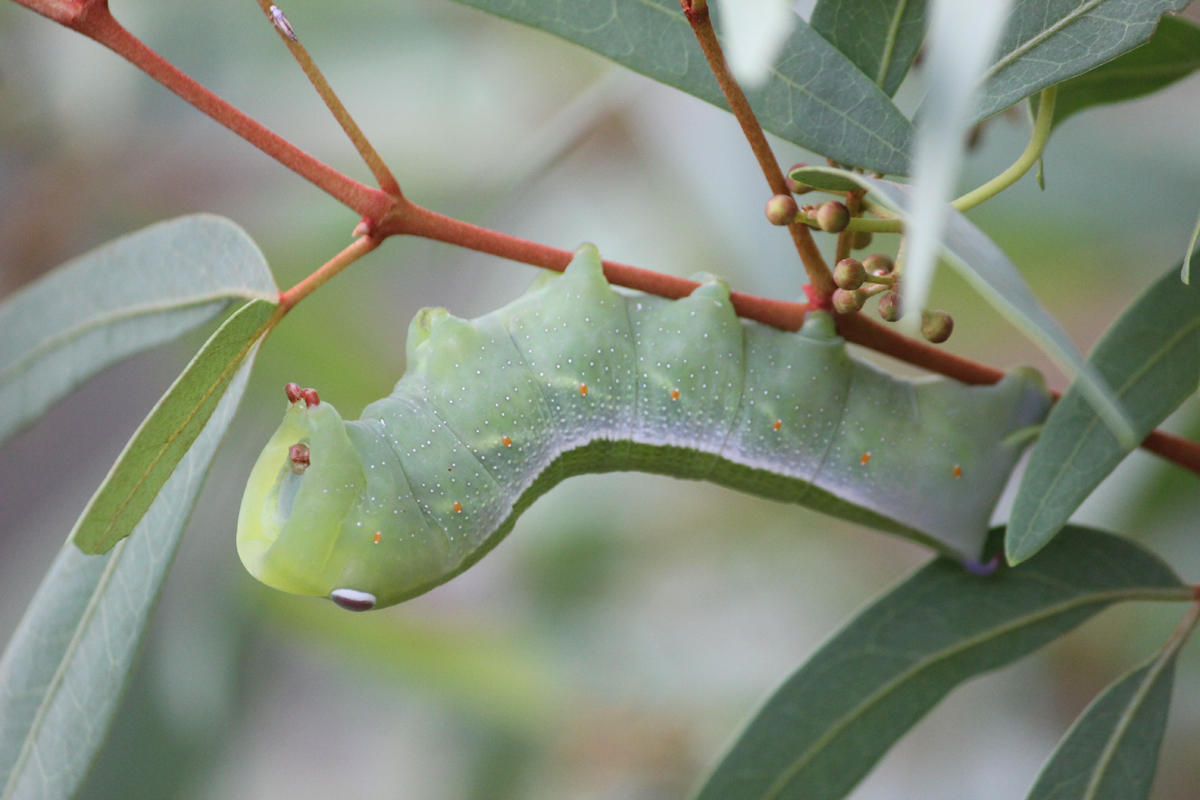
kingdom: Animalia
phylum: Arthropoda
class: Insecta
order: Lepidoptera
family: Sphingidae
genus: Theretra
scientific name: Theretra capensis
